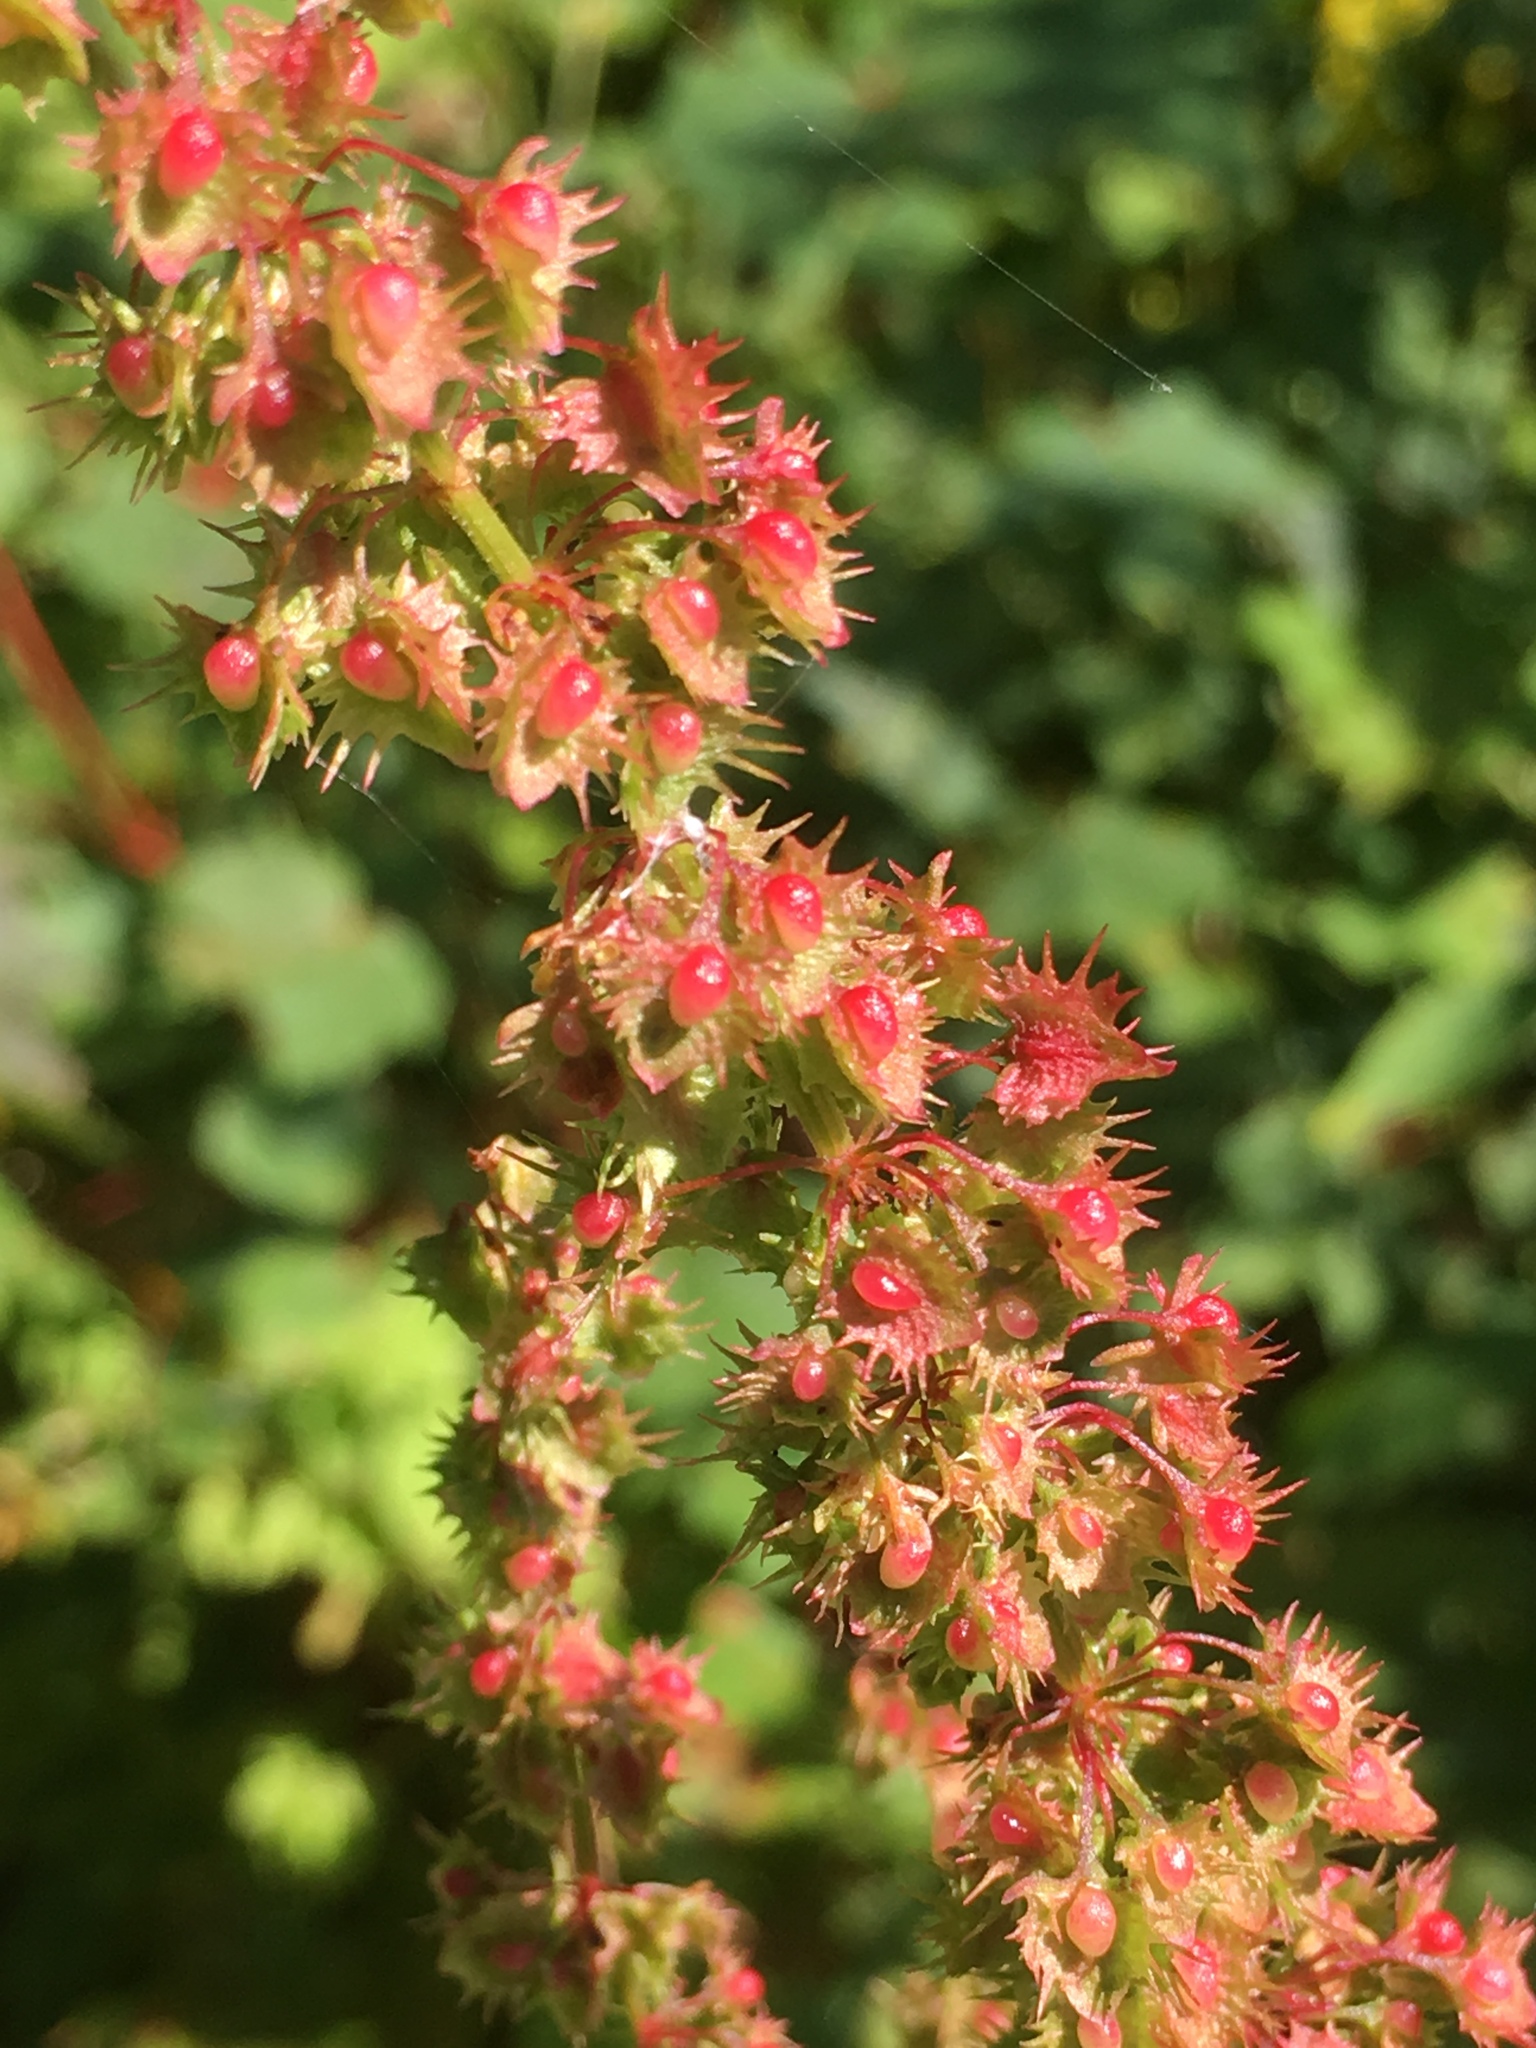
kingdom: Plantae
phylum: Tracheophyta
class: Magnoliopsida
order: Caryophyllales
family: Polygonaceae
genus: Rumex
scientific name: Rumex obtusifolius
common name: Bitter dock
